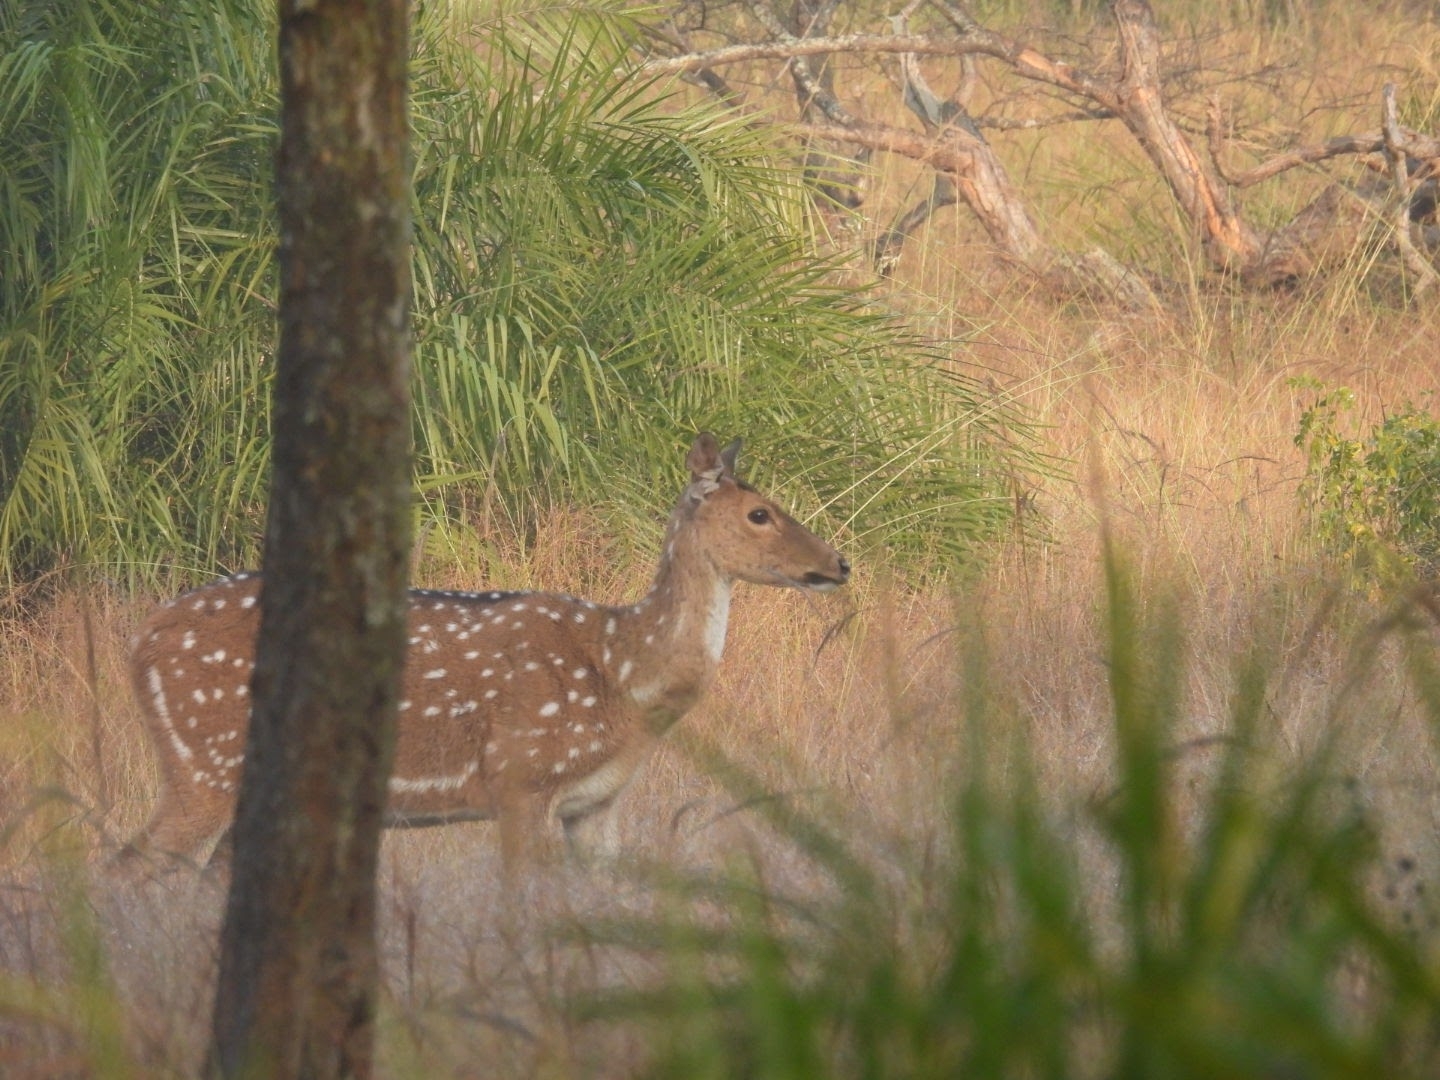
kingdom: Animalia
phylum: Chordata
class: Mammalia
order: Artiodactyla
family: Cervidae
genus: Axis
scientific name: Axis axis
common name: Chital
